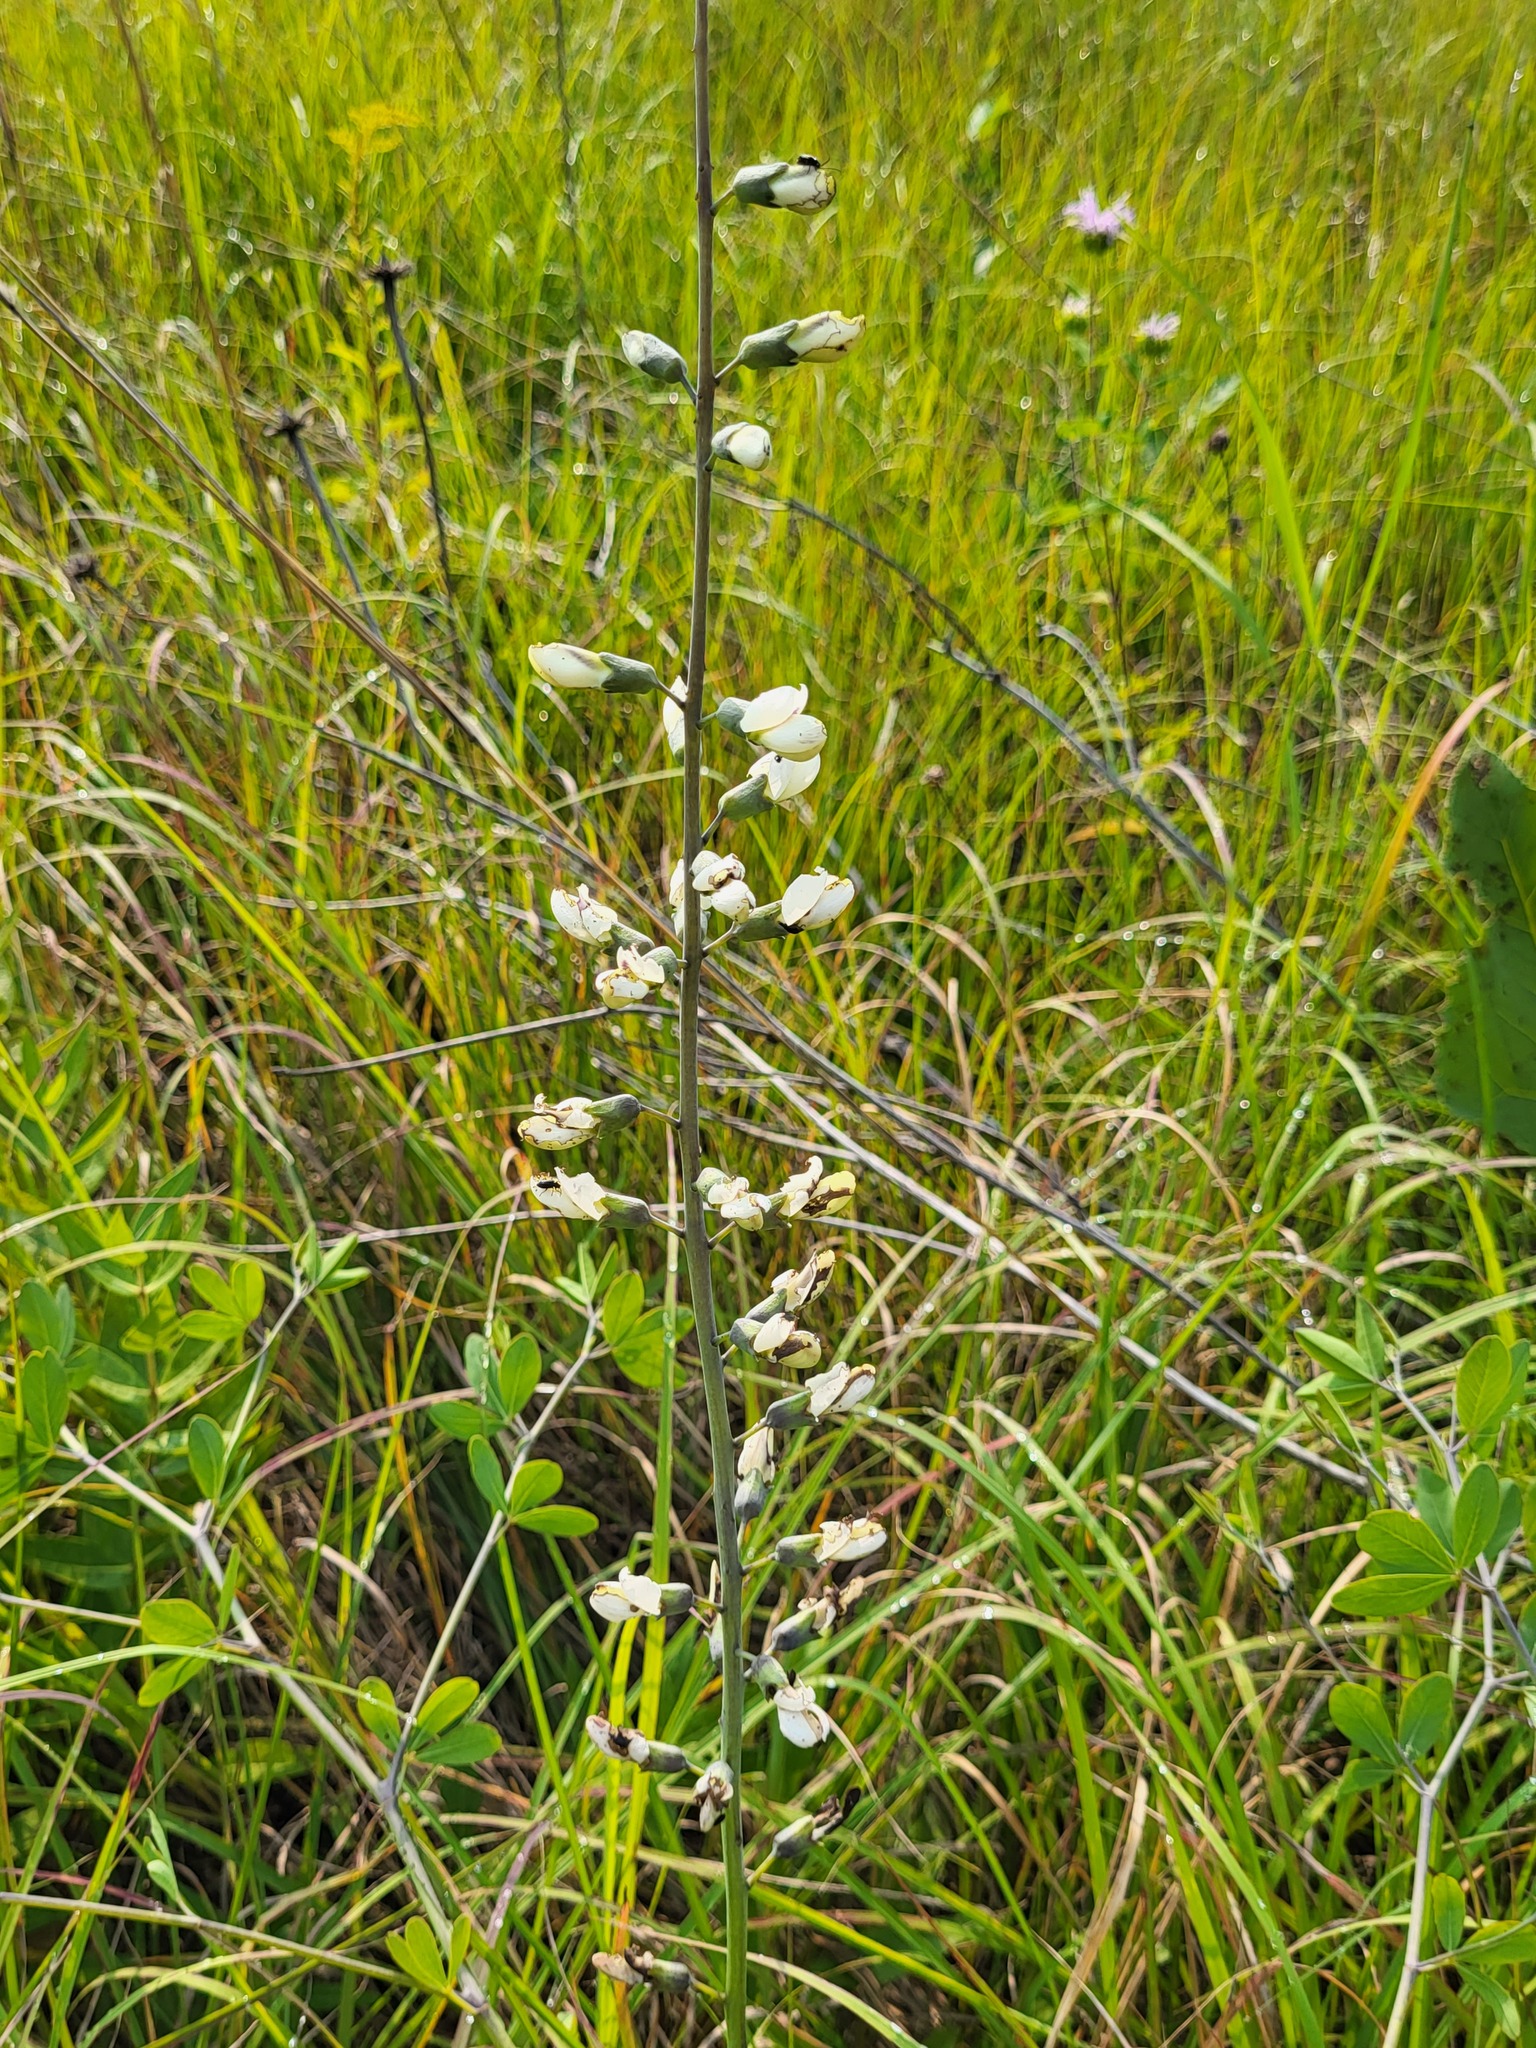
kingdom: Plantae
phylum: Tracheophyta
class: Magnoliopsida
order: Fabales
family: Fabaceae
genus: Baptisia
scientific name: Baptisia alba
